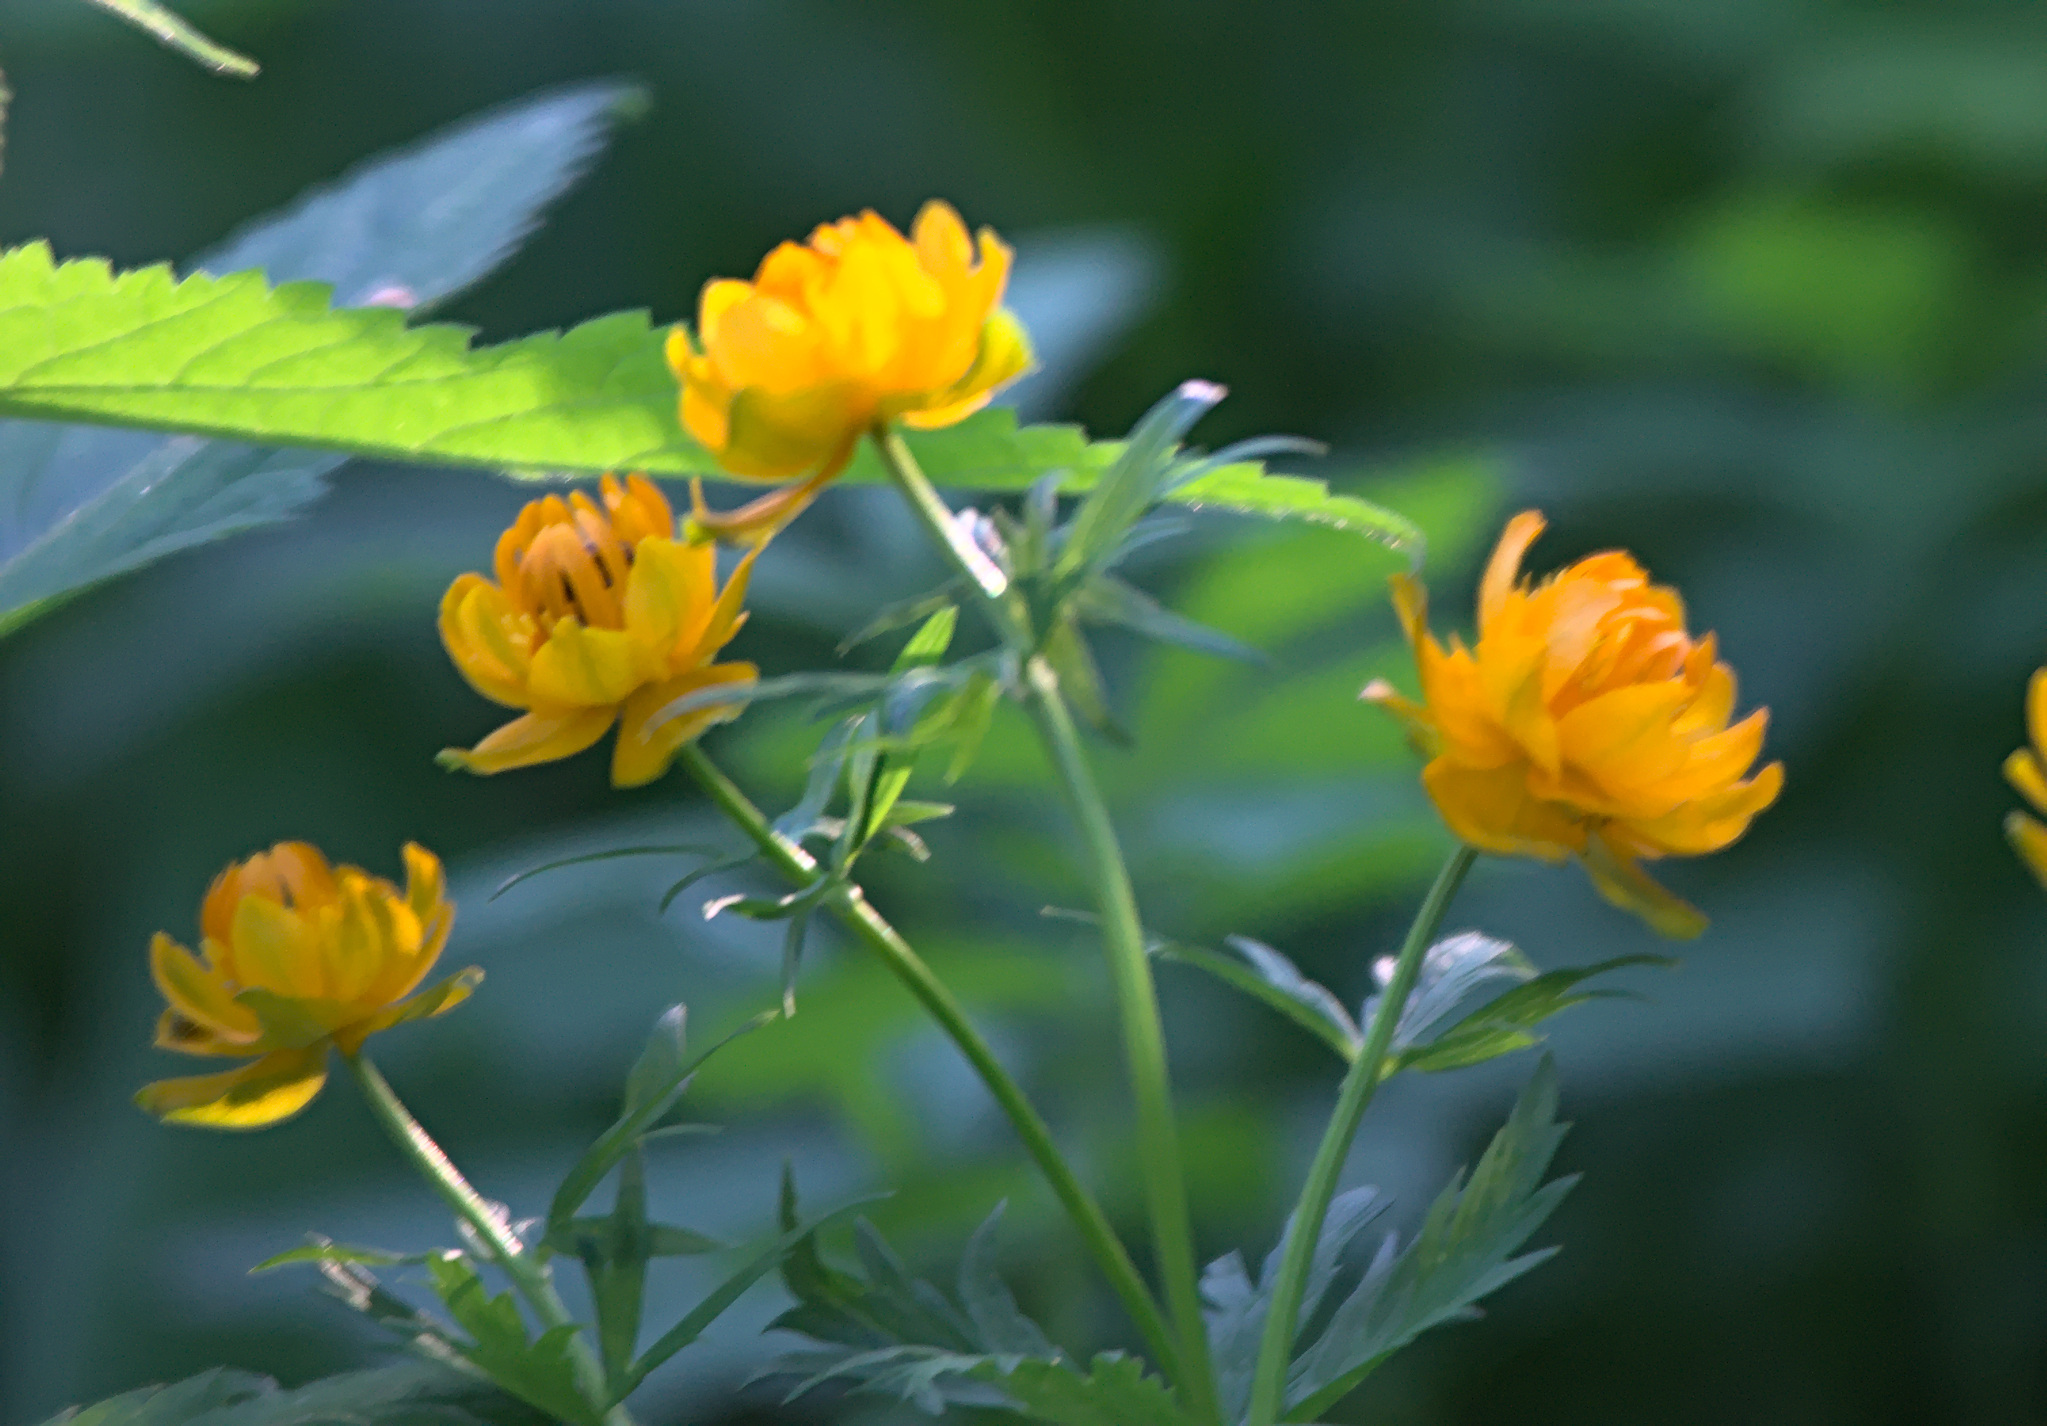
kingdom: Plantae
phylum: Tracheophyta
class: Magnoliopsida
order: Ranunculales
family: Ranunculaceae
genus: Trollius
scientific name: Trollius asiaticus
